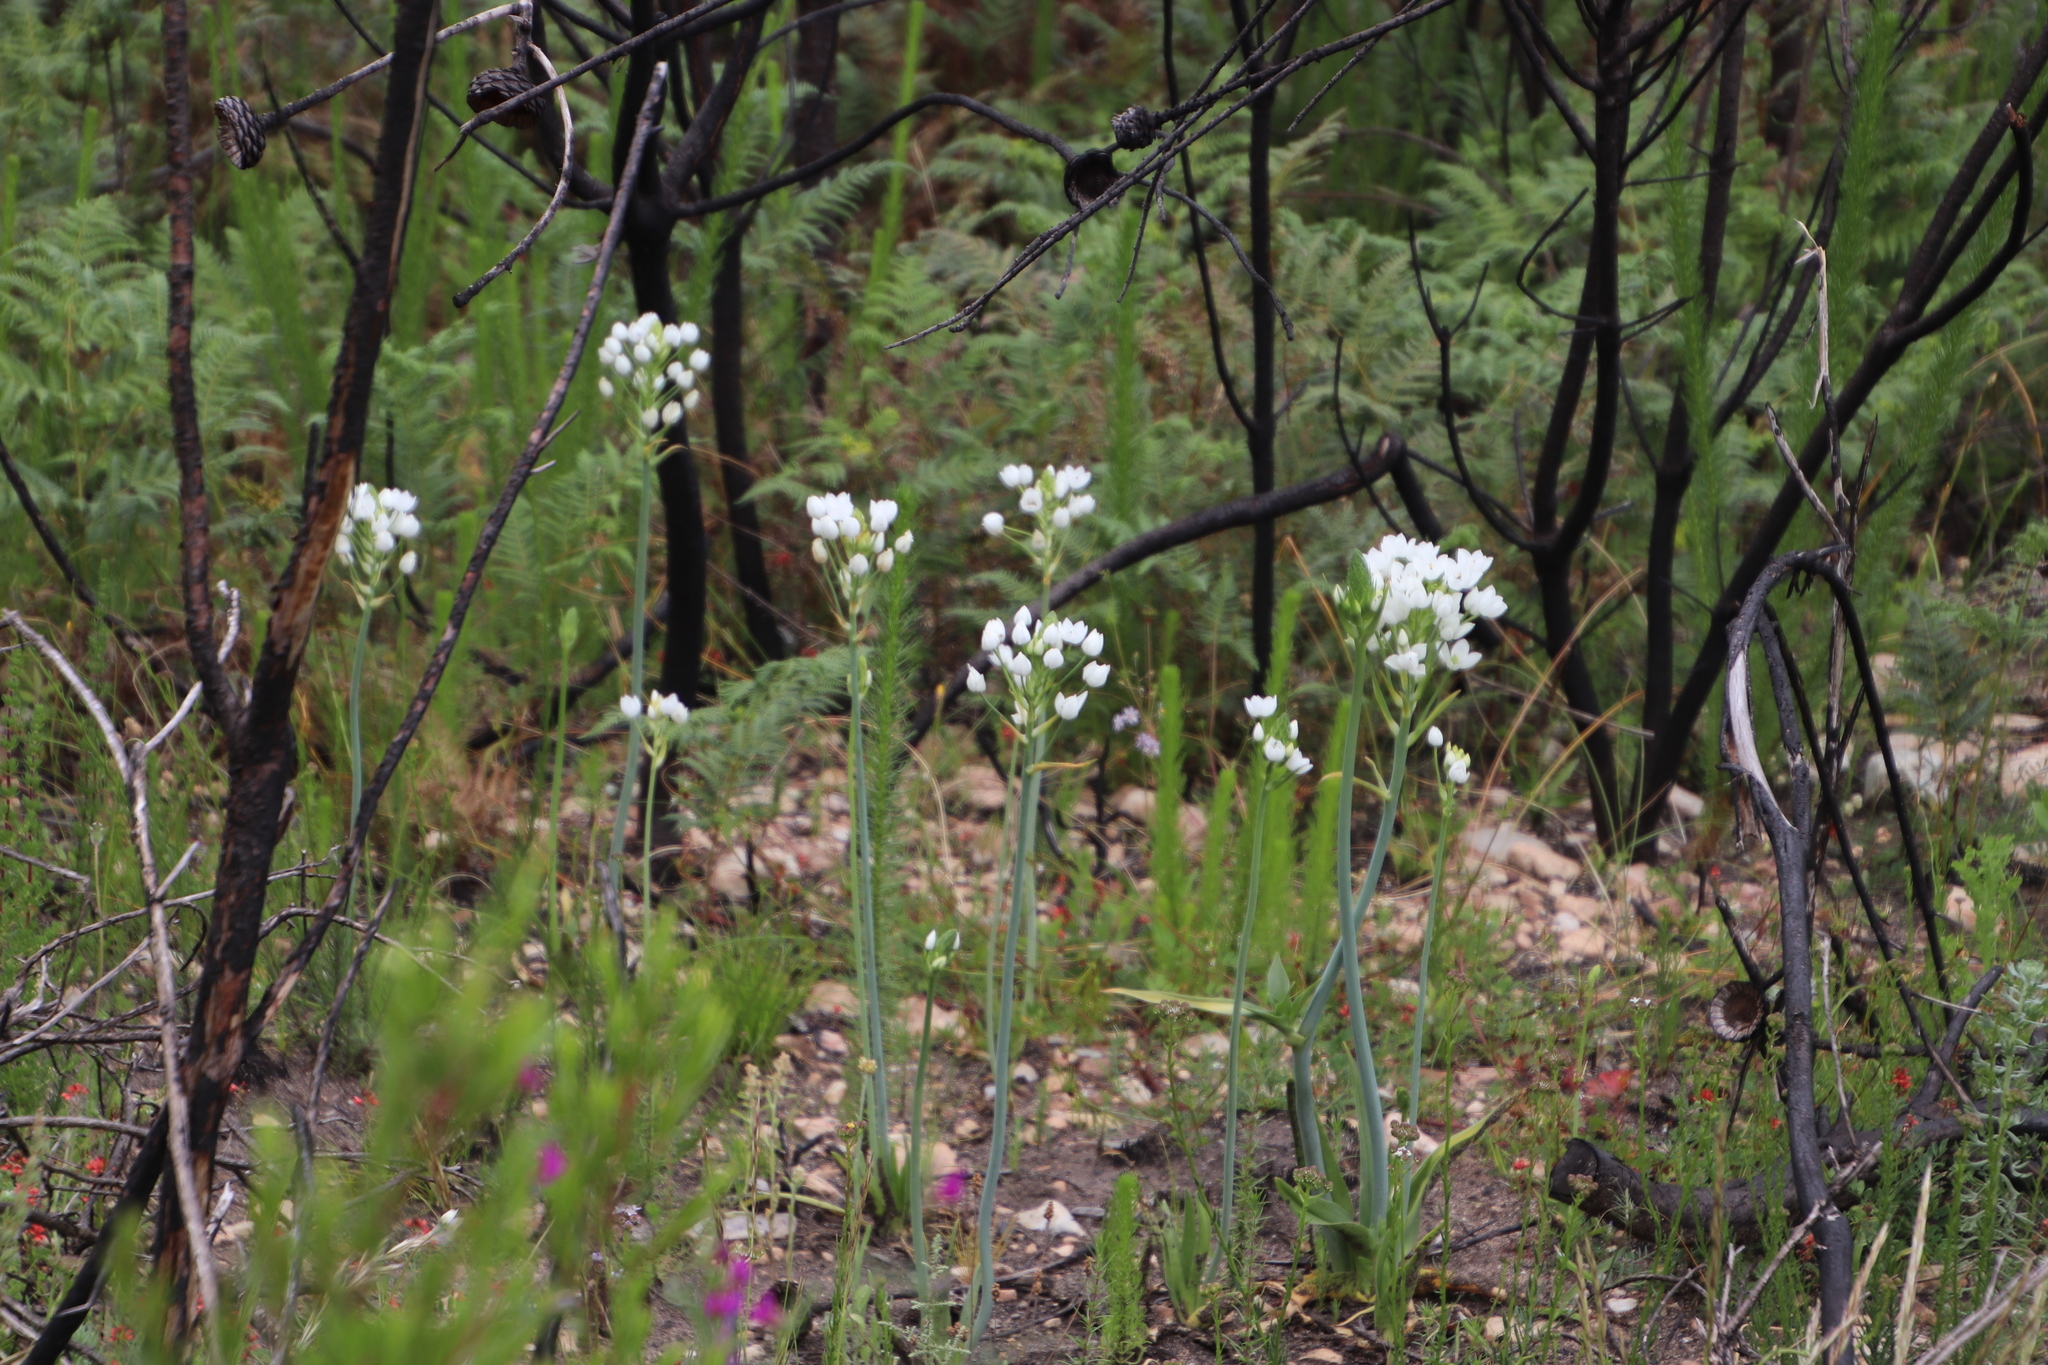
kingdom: Plantae
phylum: Tracheophyta
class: Liliopsida
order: Asparagales
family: Asparagaceae
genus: Ornithogalum
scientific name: Ornithogalum thyrsoides
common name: Chincherinchee
